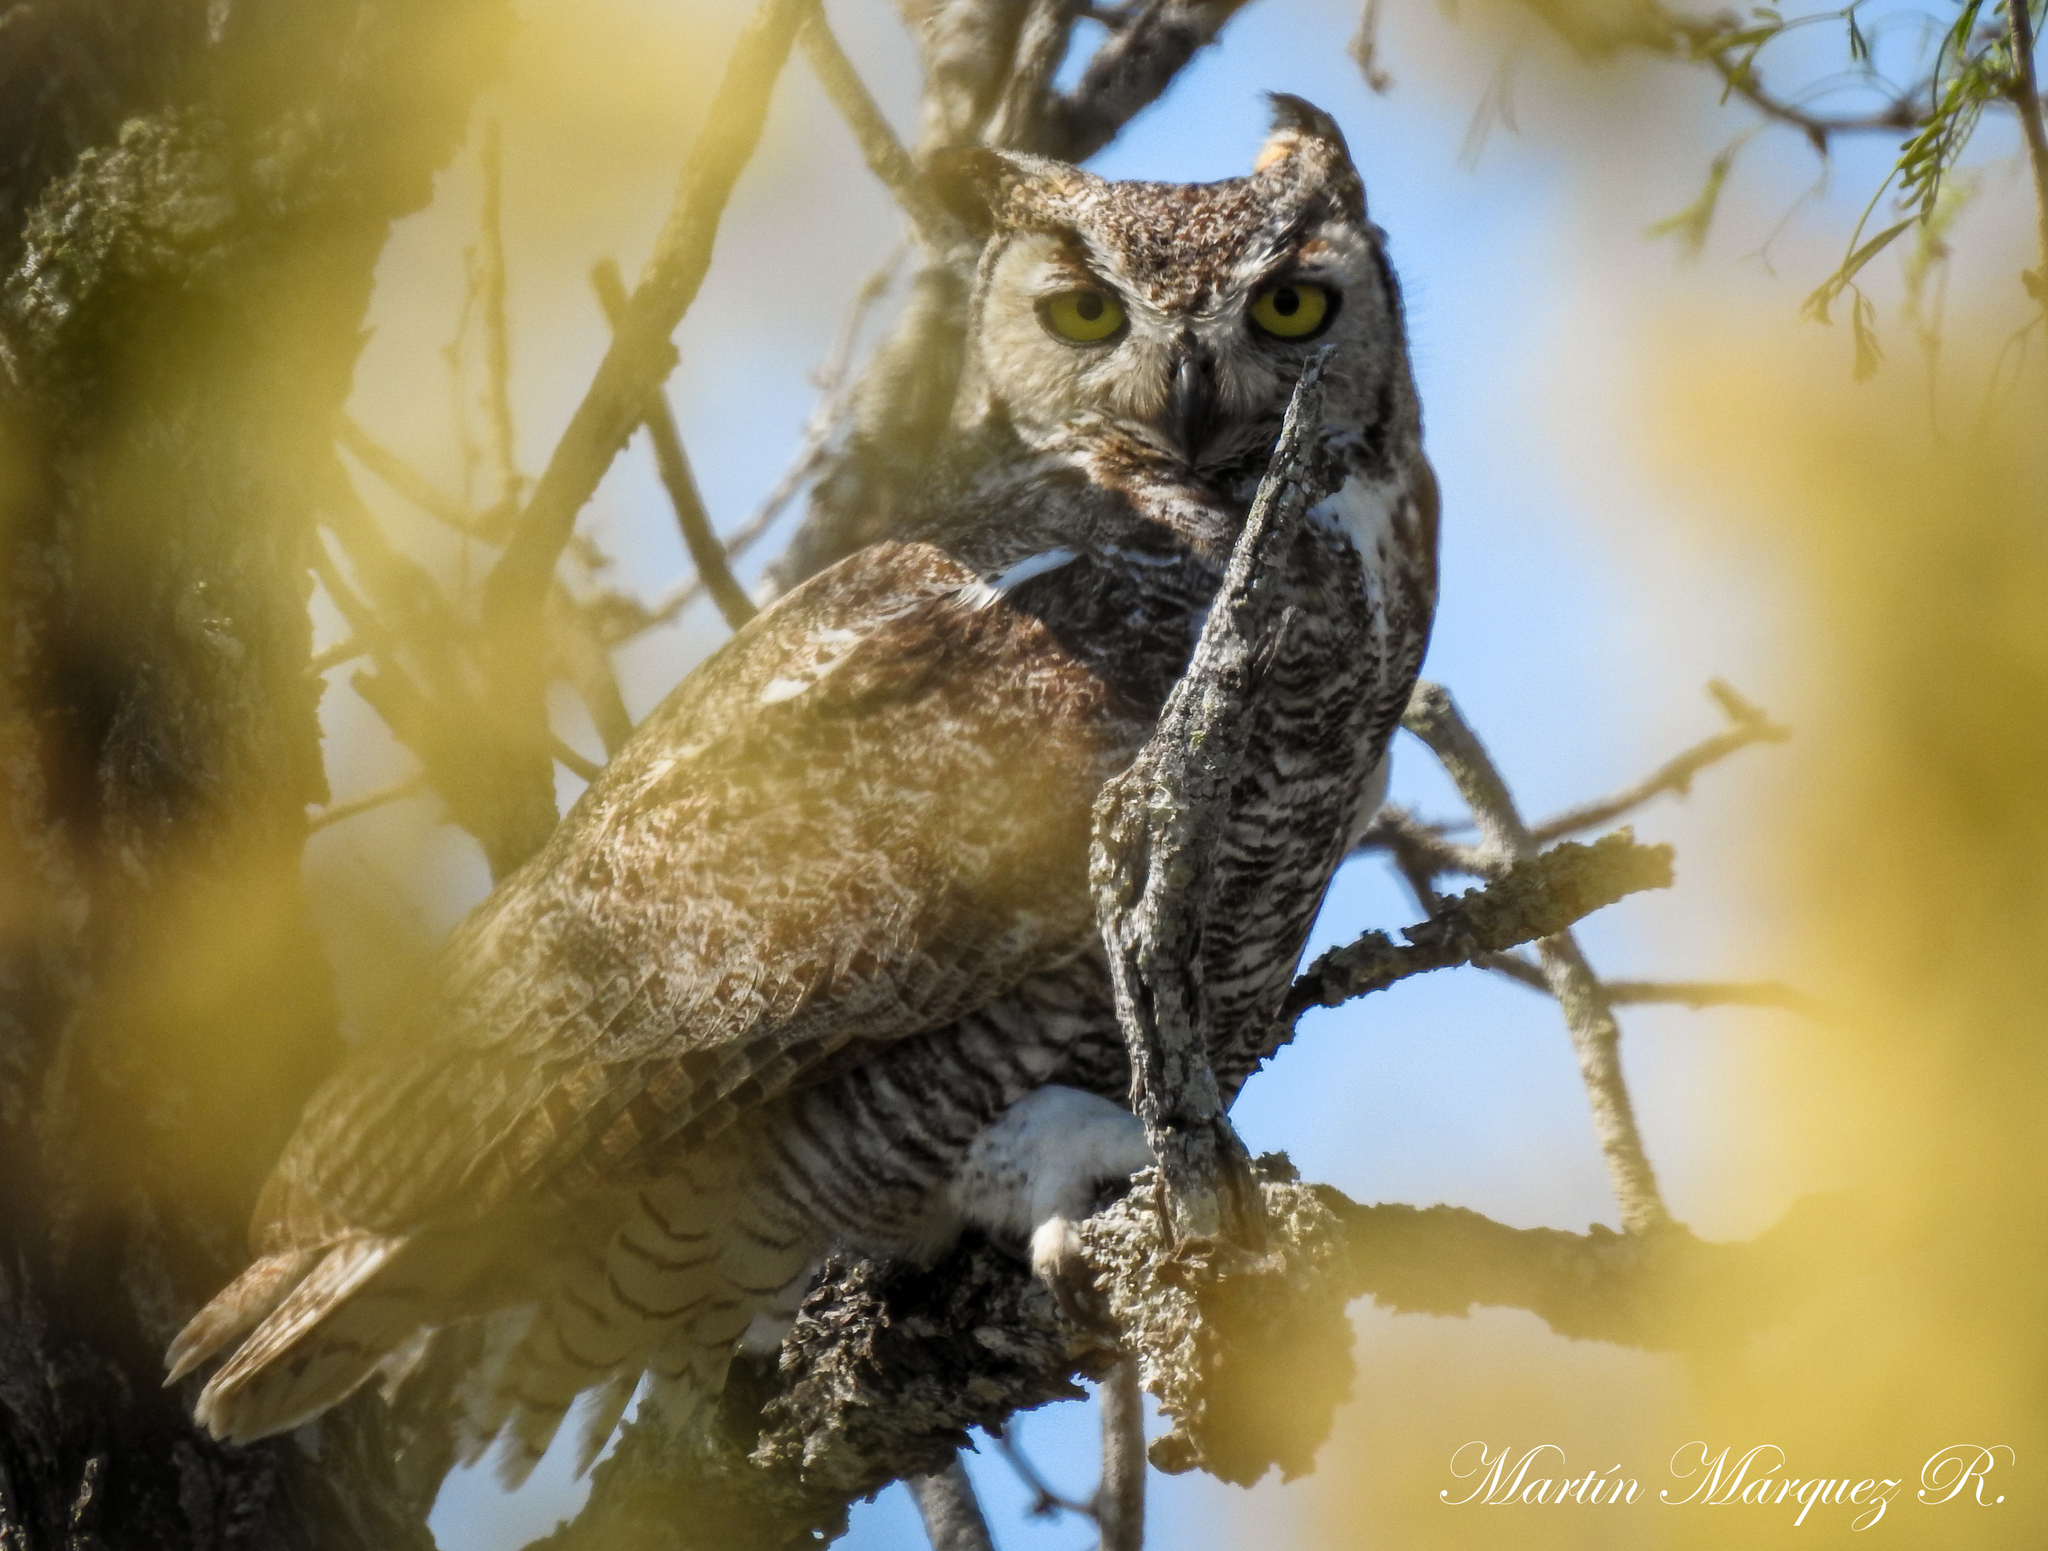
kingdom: Animalia
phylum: Chordata
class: Aves
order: Strigiformes
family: Strigidae
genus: Bubo
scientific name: Bubo virginianus
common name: Great horned owl
